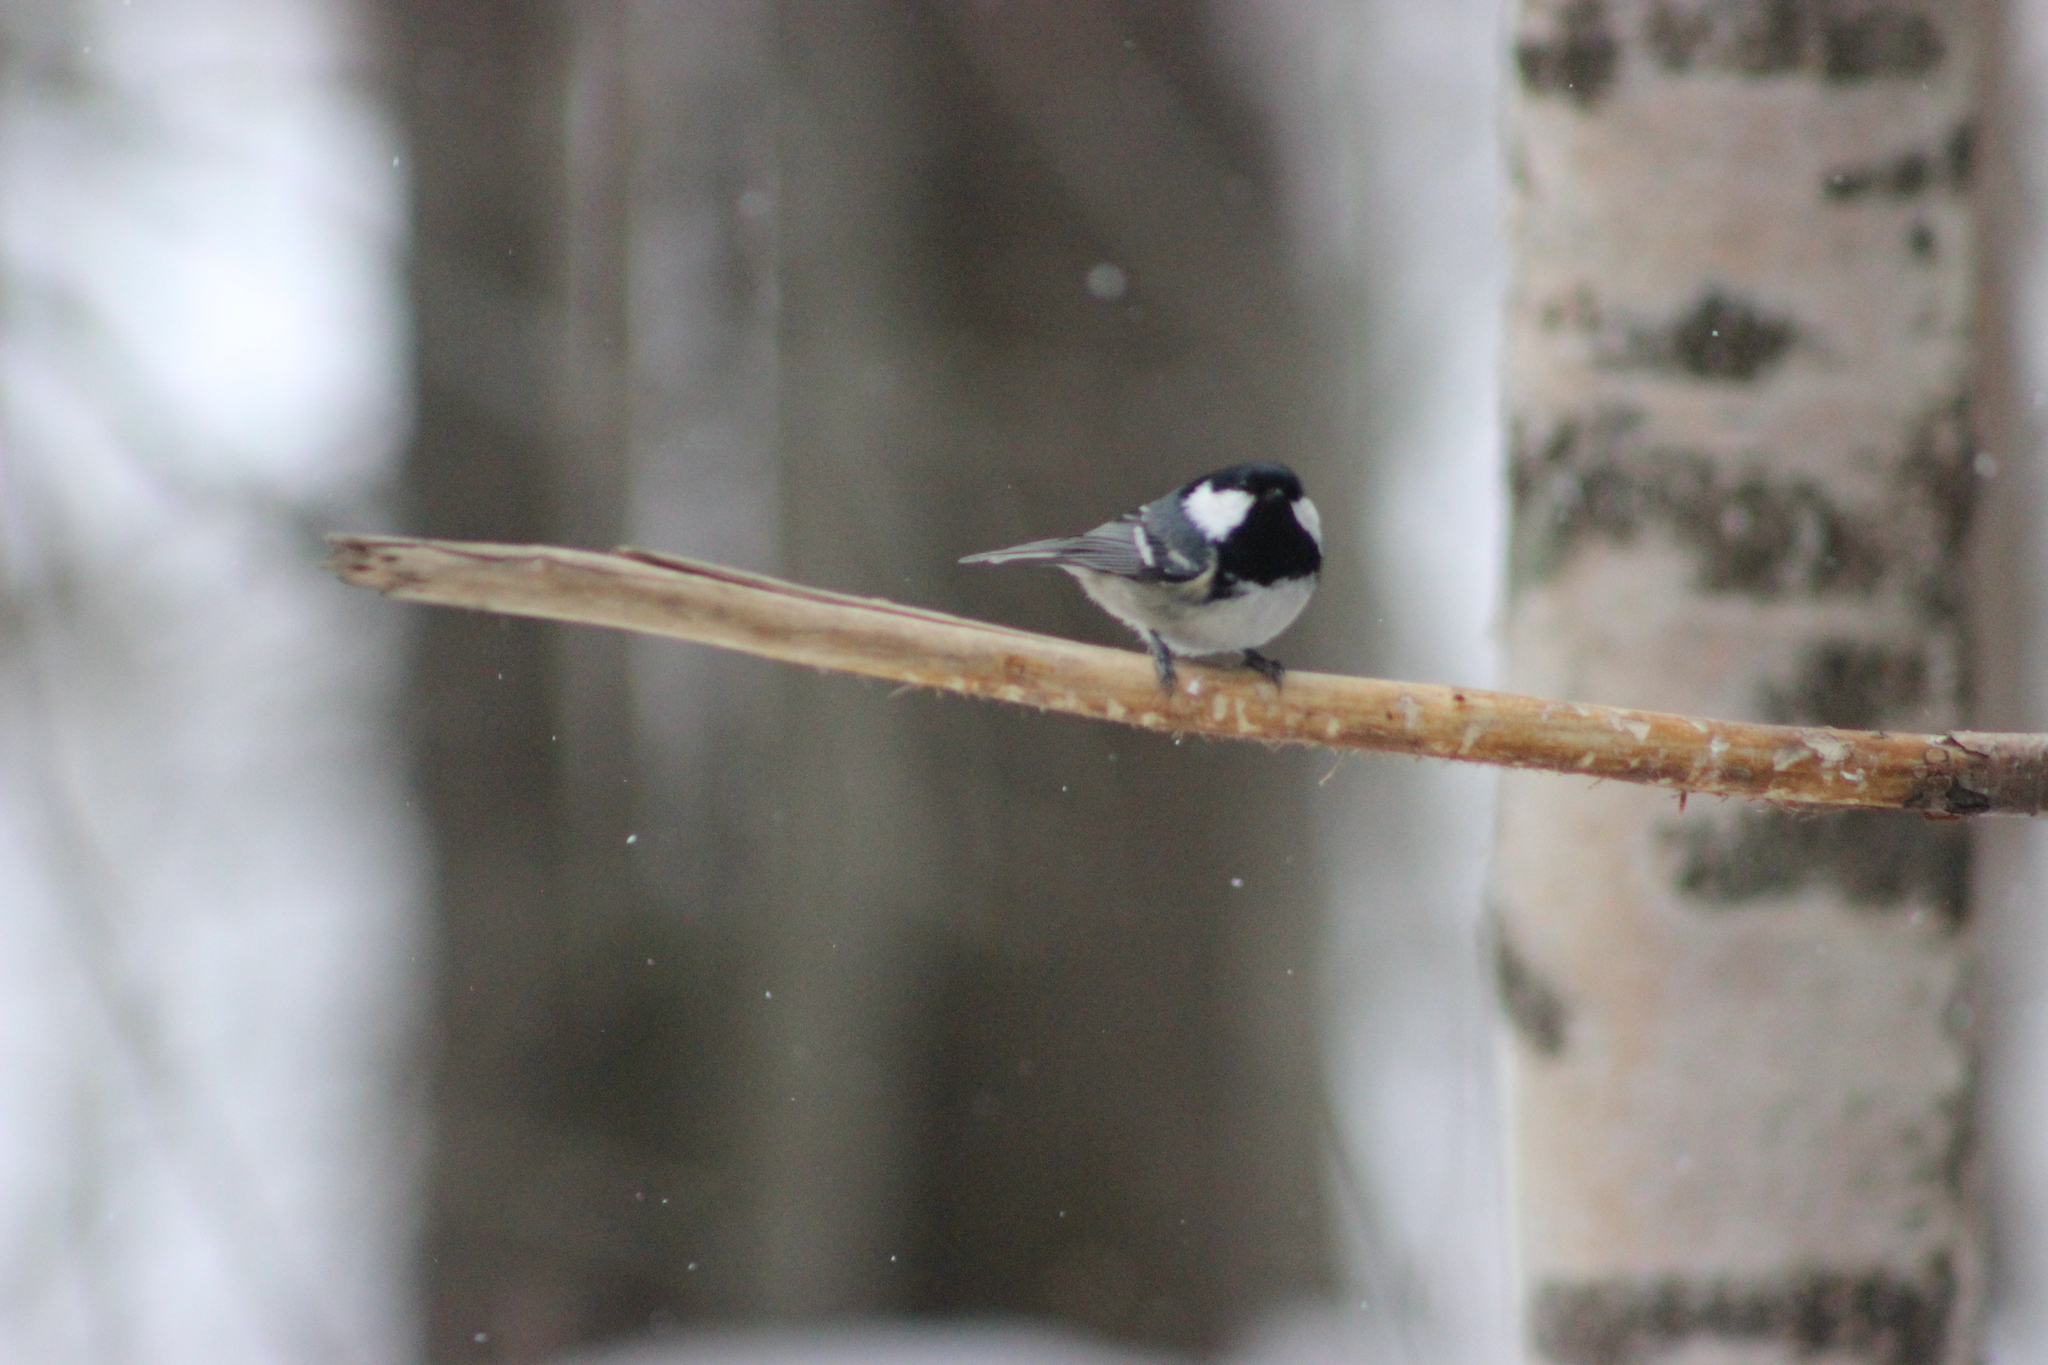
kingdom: Animalia
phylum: Chordata
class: Aves
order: Passeriformes
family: Paridae
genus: Periparus
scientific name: Periparus ater
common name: Coal tit
